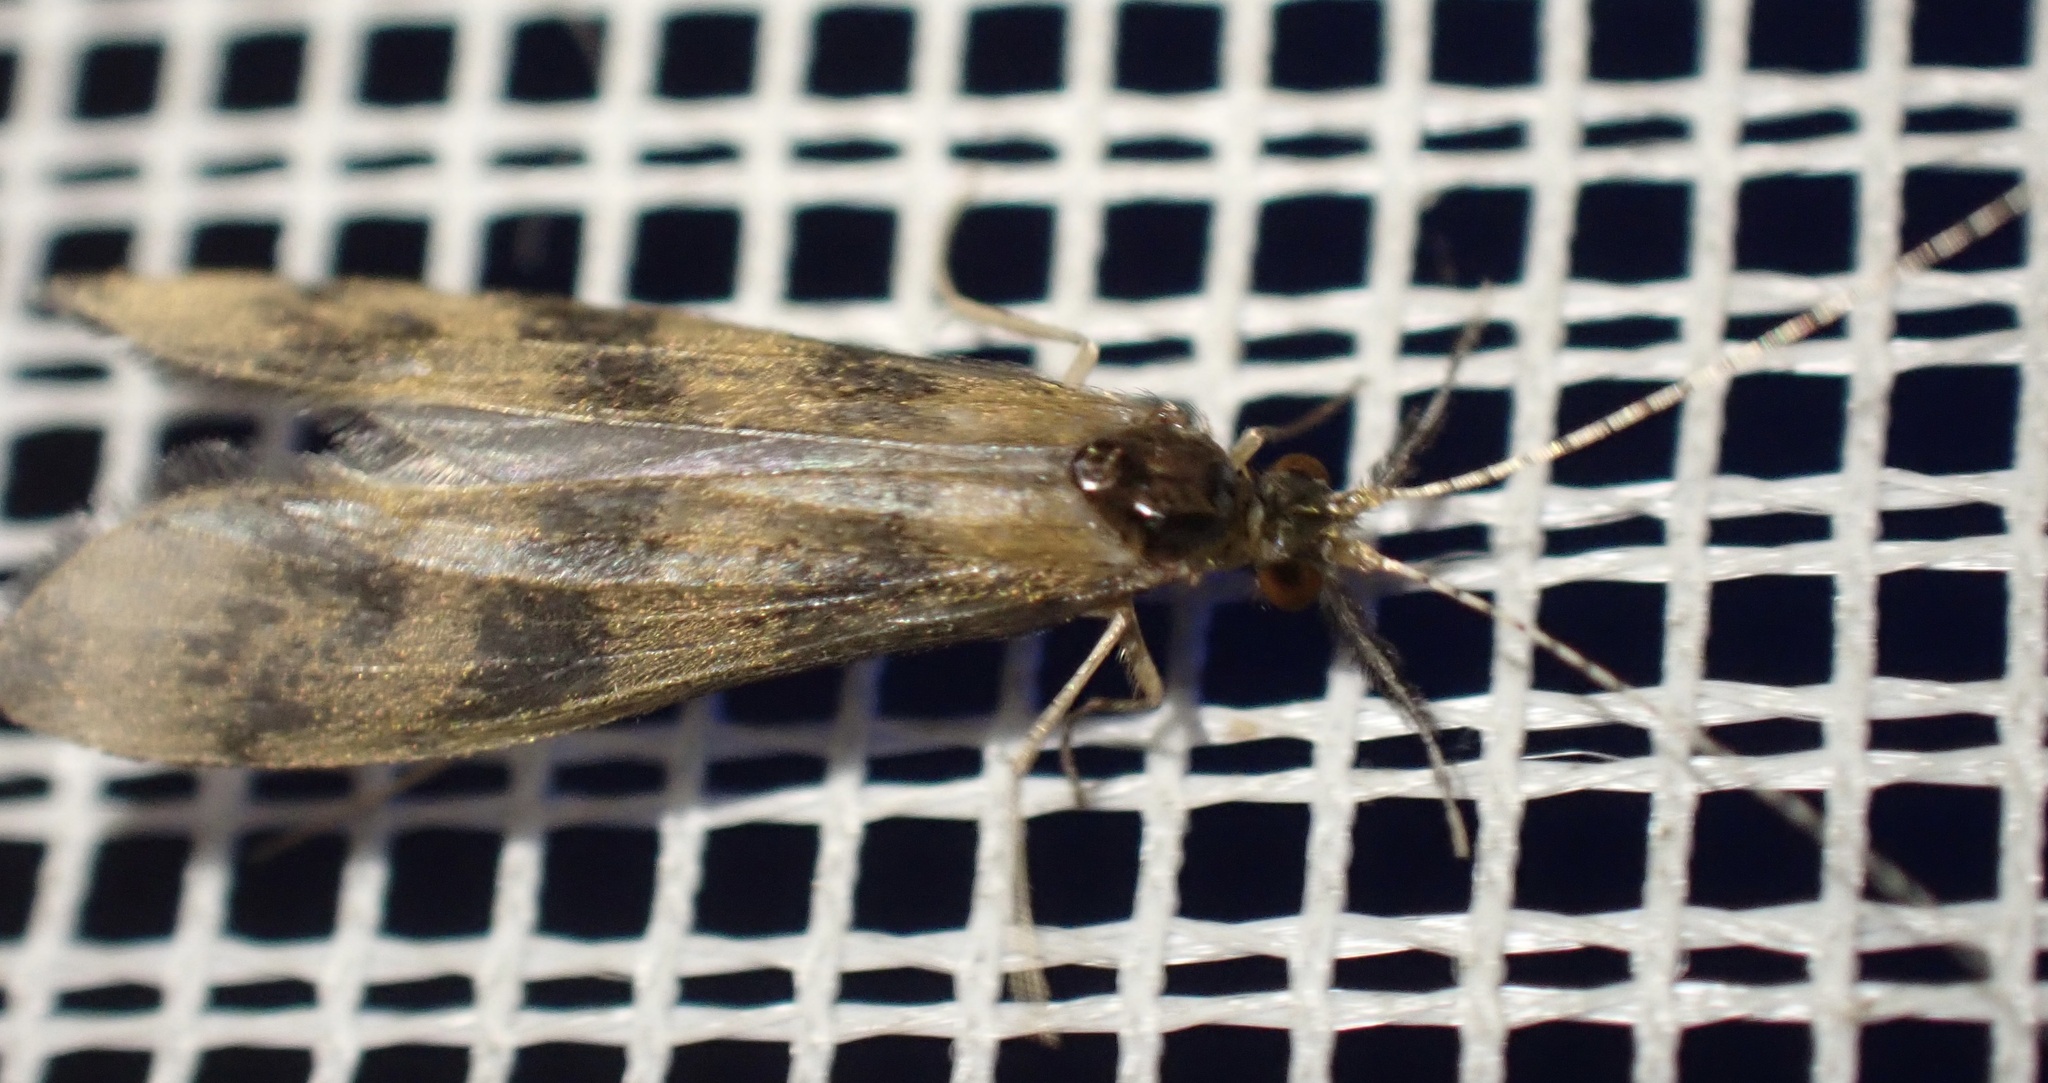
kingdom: Animalia
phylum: Arthropoda
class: Insecta
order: Trichoptera
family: Leptoceridae
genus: Mystacides
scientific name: Mystacides longicornis
